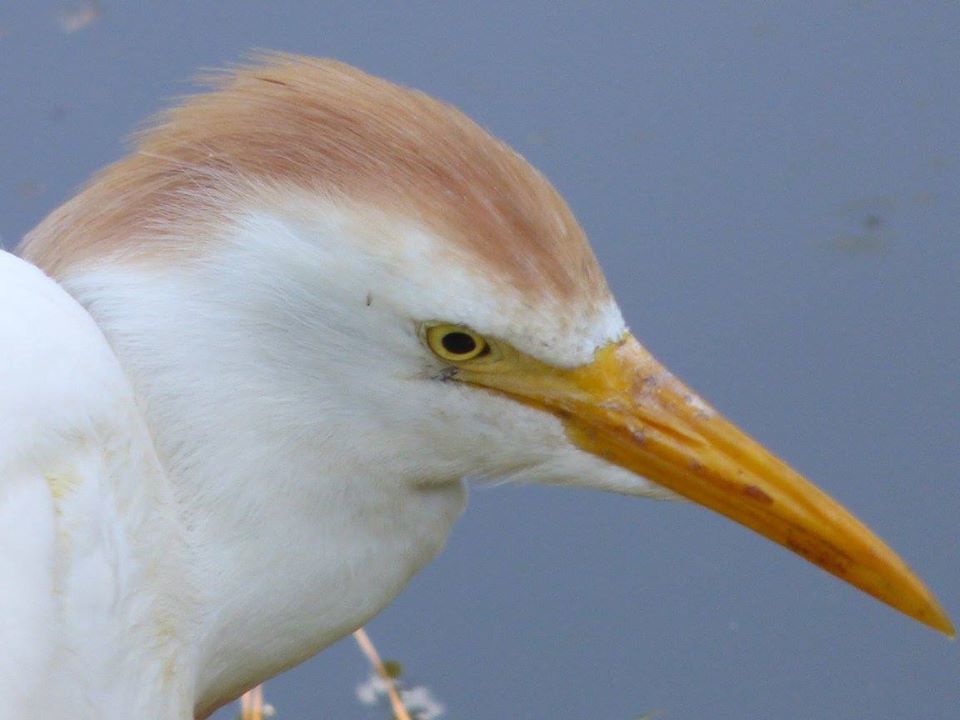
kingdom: Animalia
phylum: Chordata
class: Aves
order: Pelecaniformes
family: Ardeidae
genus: Bubulcus
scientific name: Bubulcus ibis
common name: Cattle egret
